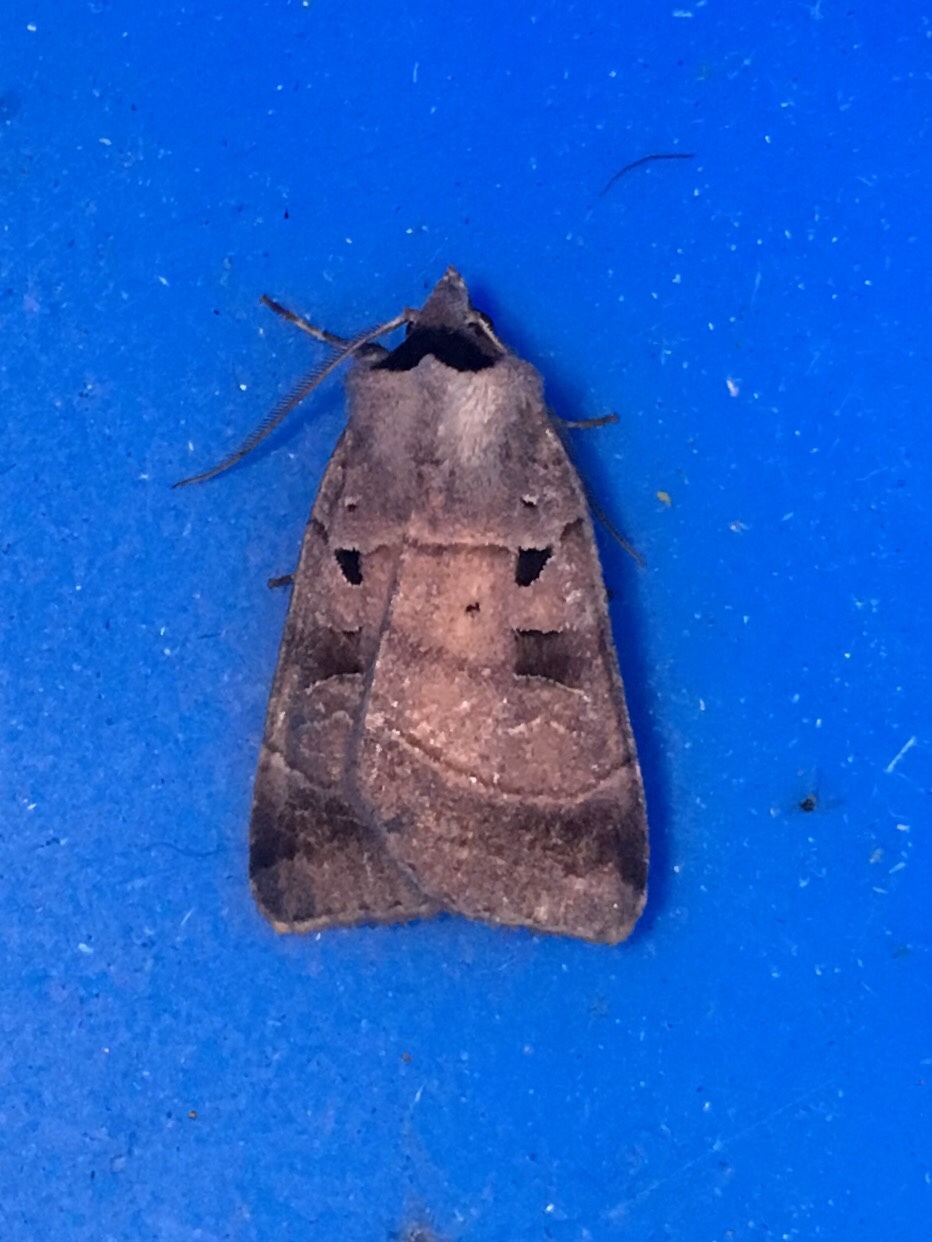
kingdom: Animalia
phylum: Arthropoda
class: Insecta
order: Lepidoptera
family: Noctuidae
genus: Agnorisma
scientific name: Agnorisma badinodis
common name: Pale-banded dart
